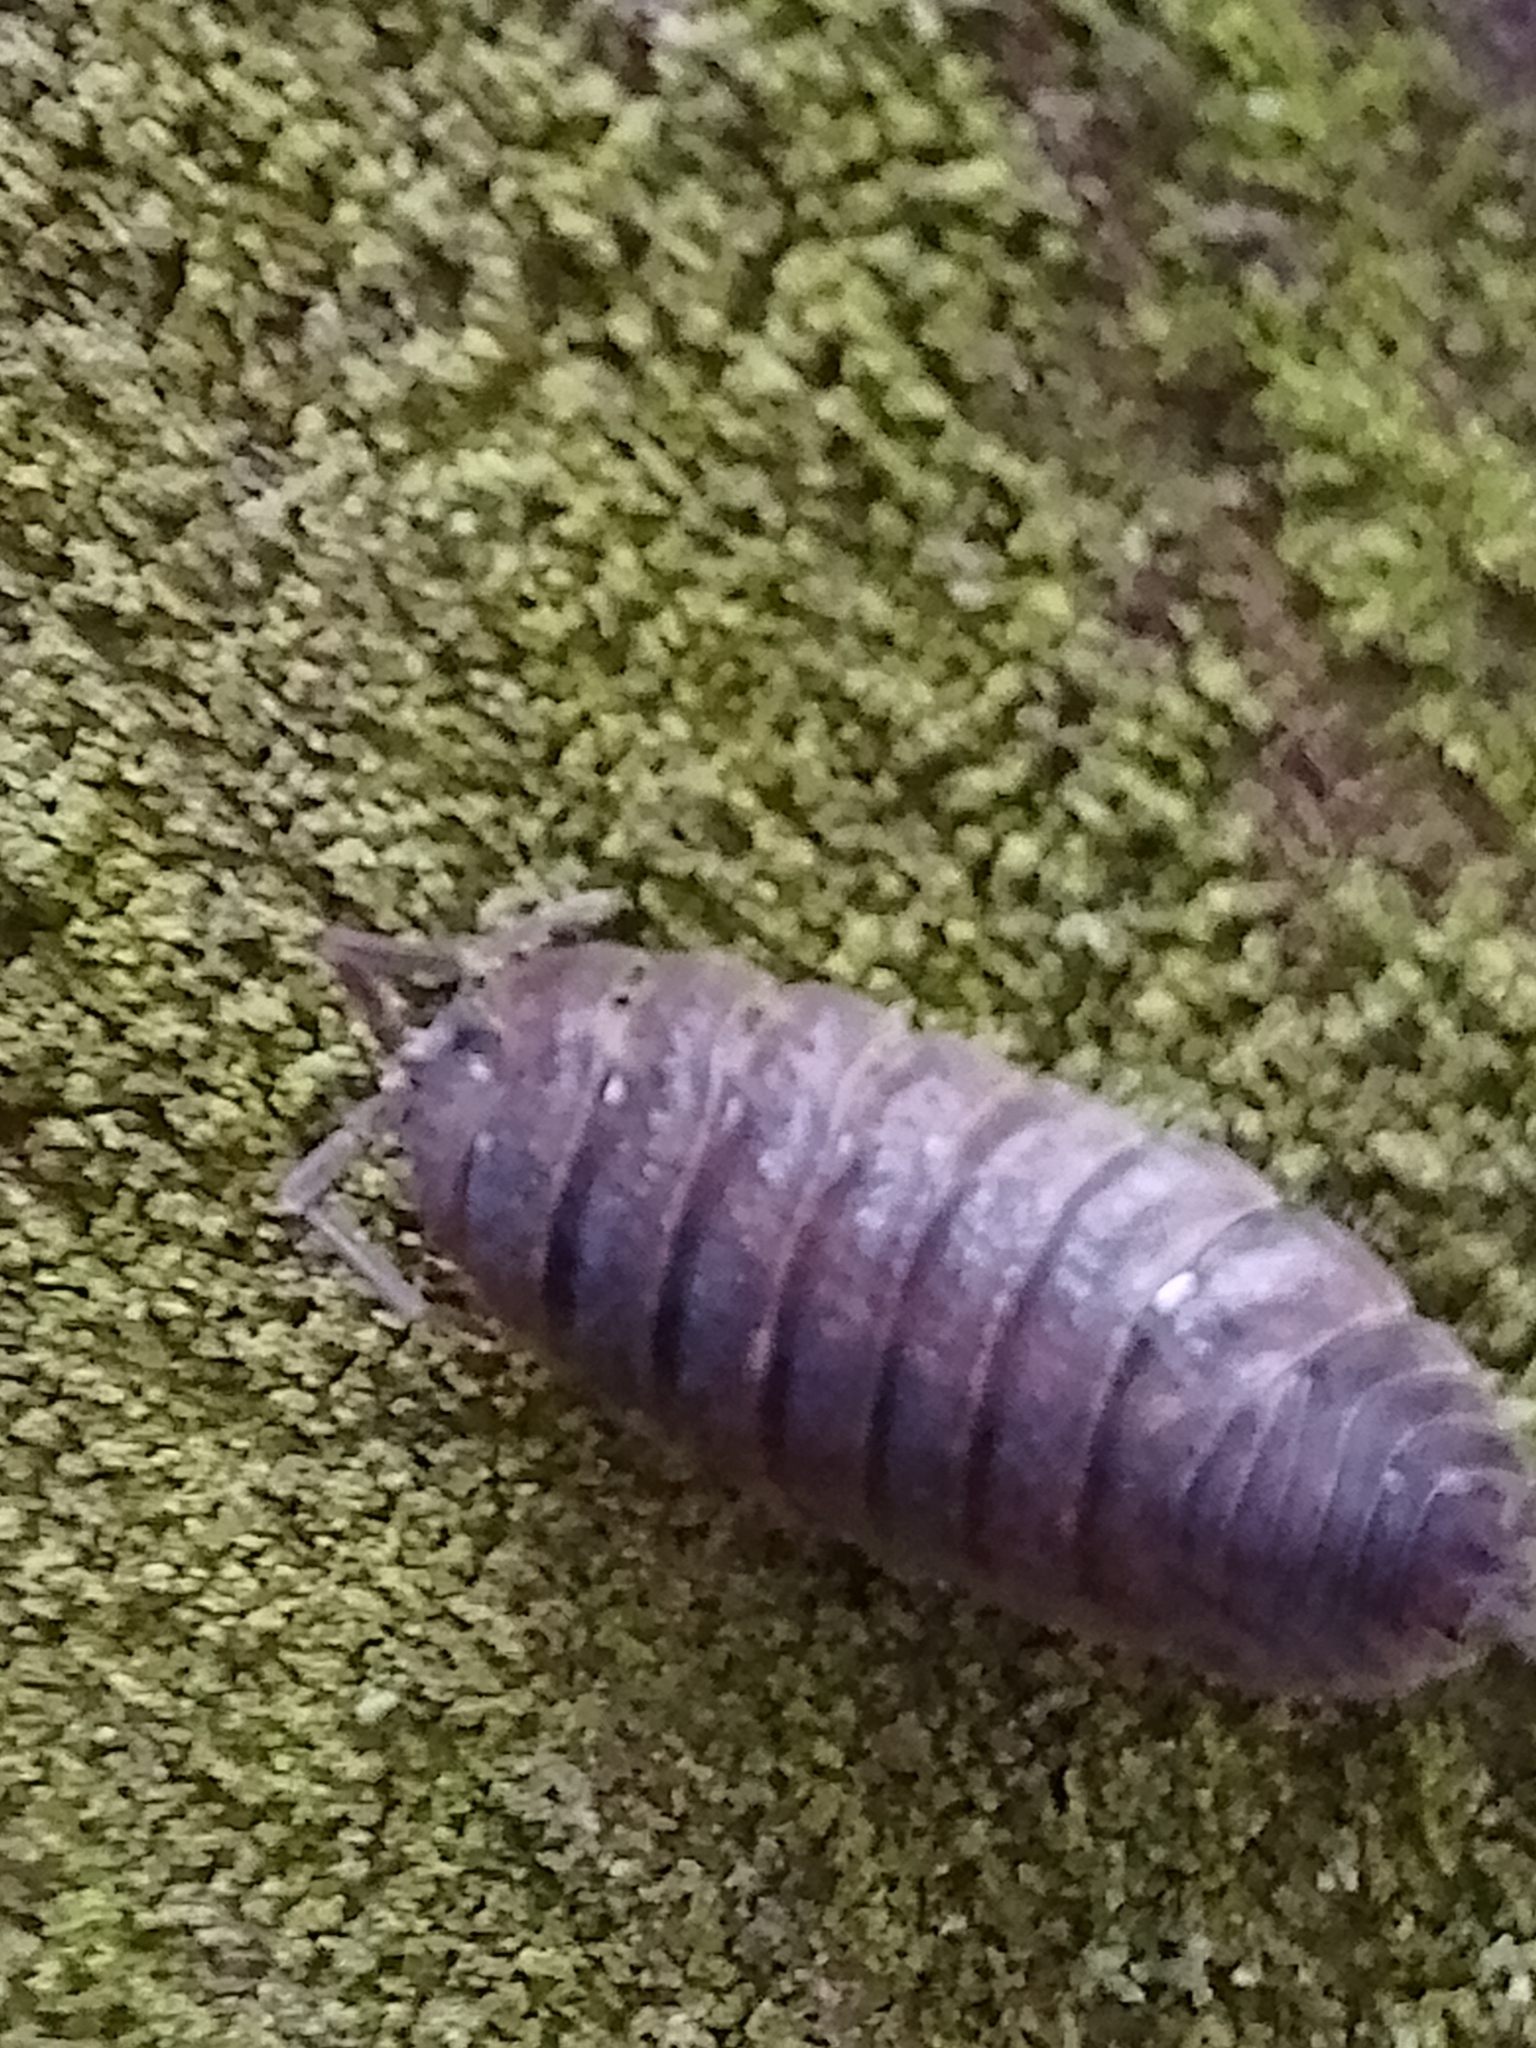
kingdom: Animalia
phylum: Arthropoda
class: Malacostraca
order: Isopoda
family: Porcellionidae
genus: Porcellio
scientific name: Porcellio scaber
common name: Common rough woodlouse
